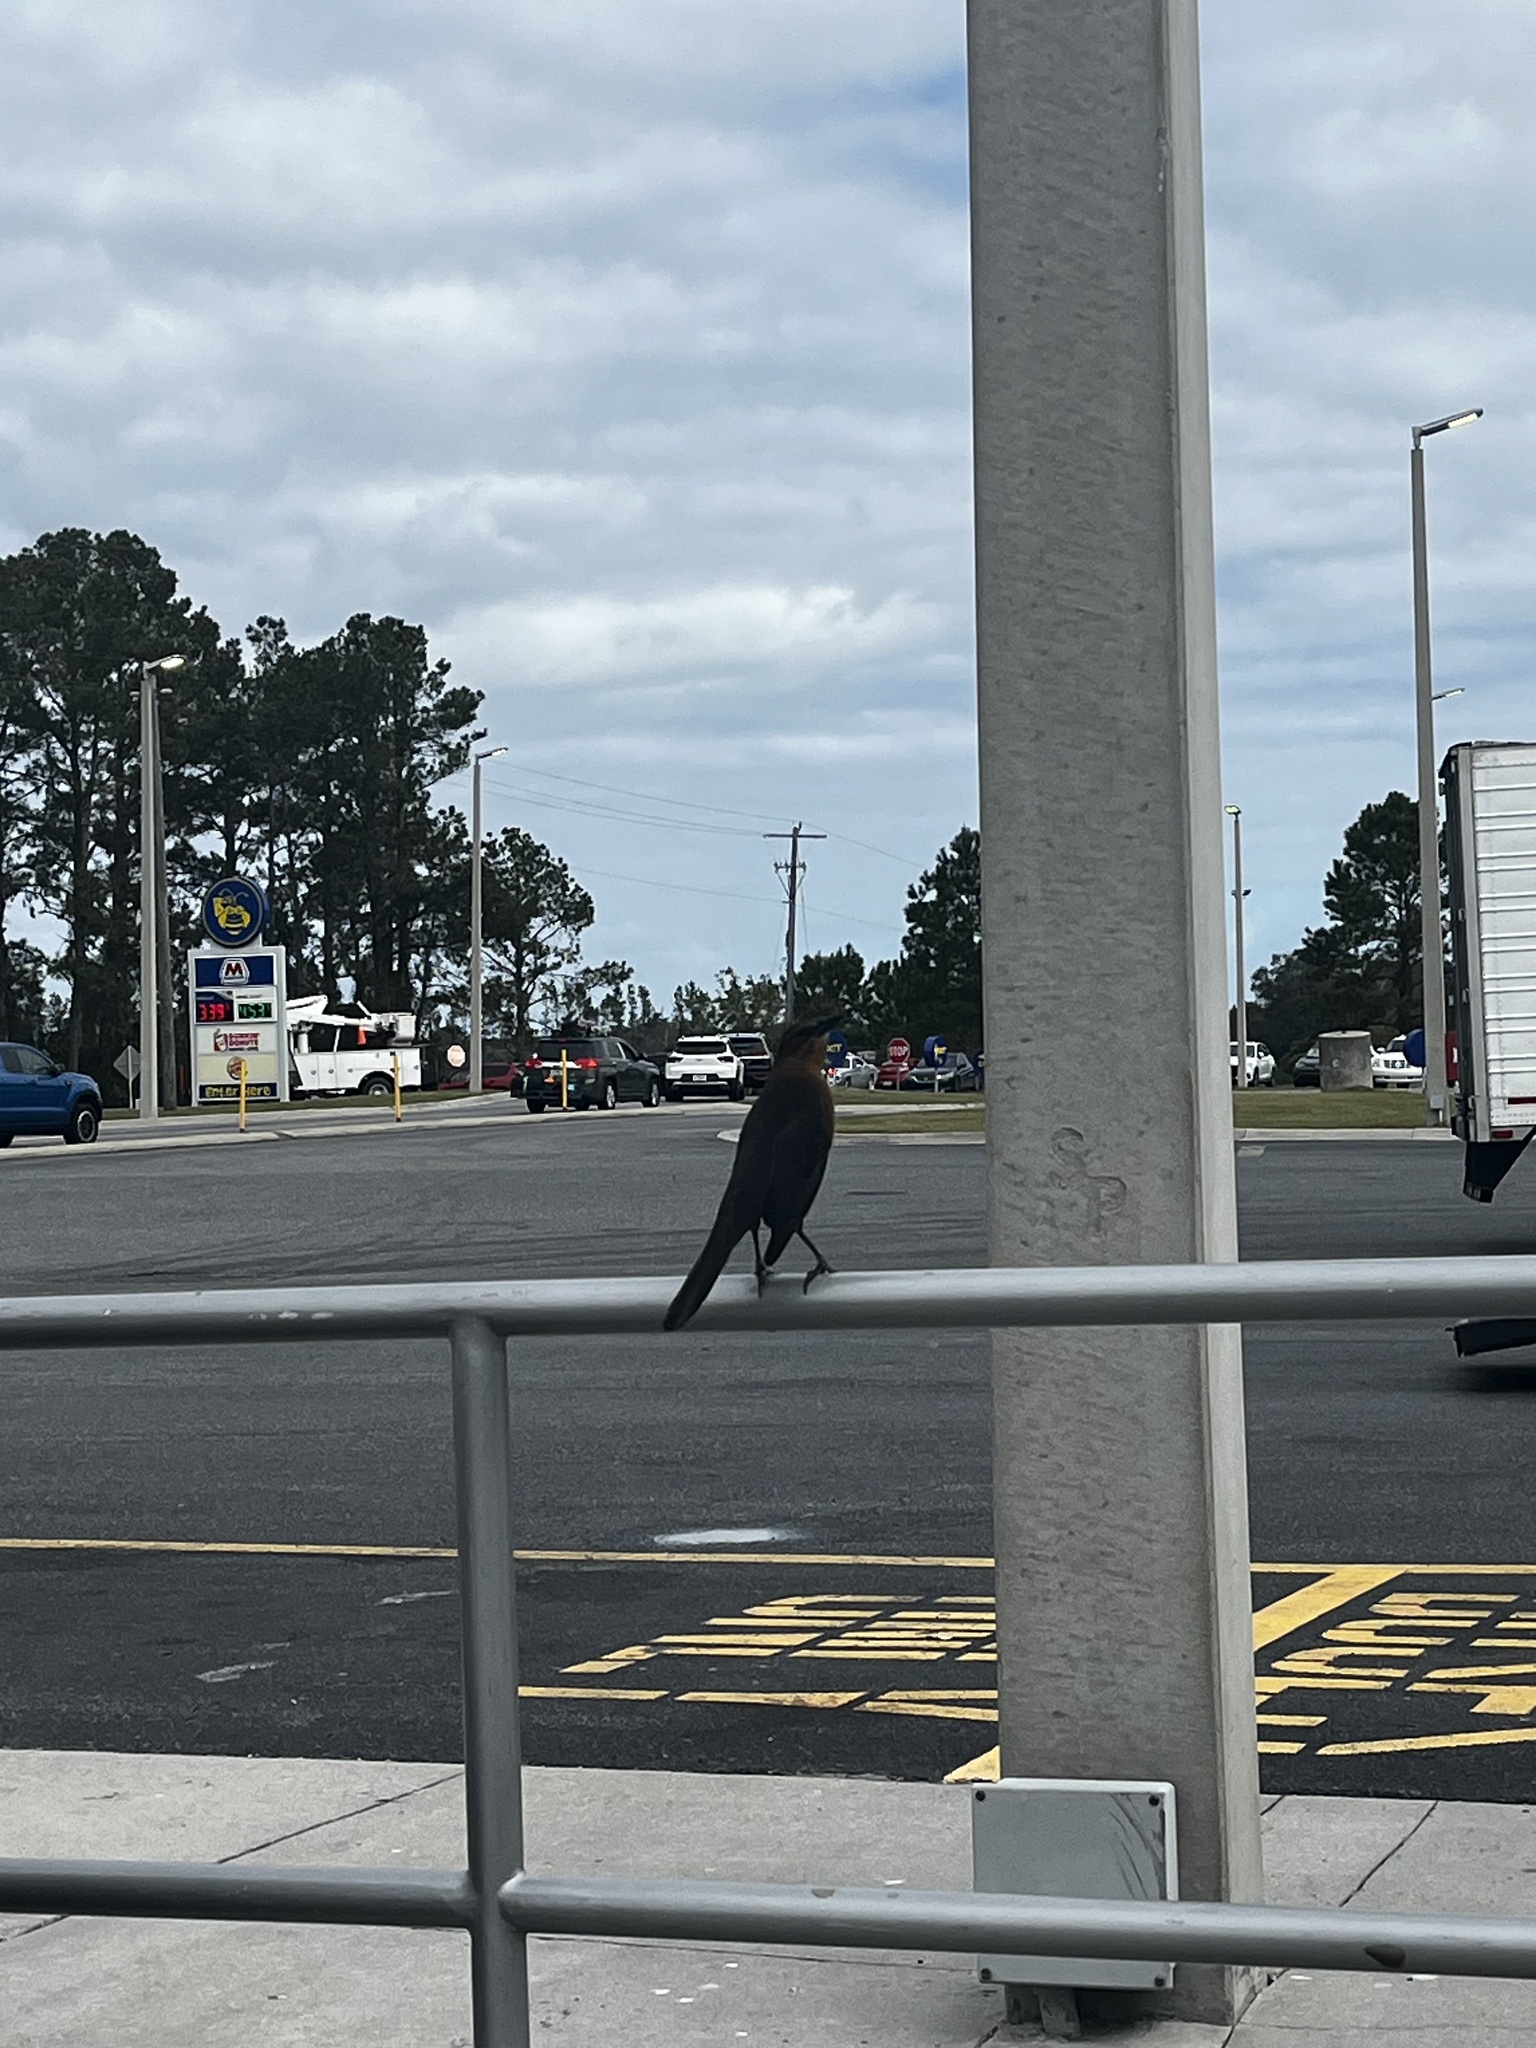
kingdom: Animalia
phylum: Chordata
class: Aves
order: Passeriformes
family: Icteridae
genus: Quiscalus
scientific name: Quiscalus major
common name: Boat-tailed grackle
